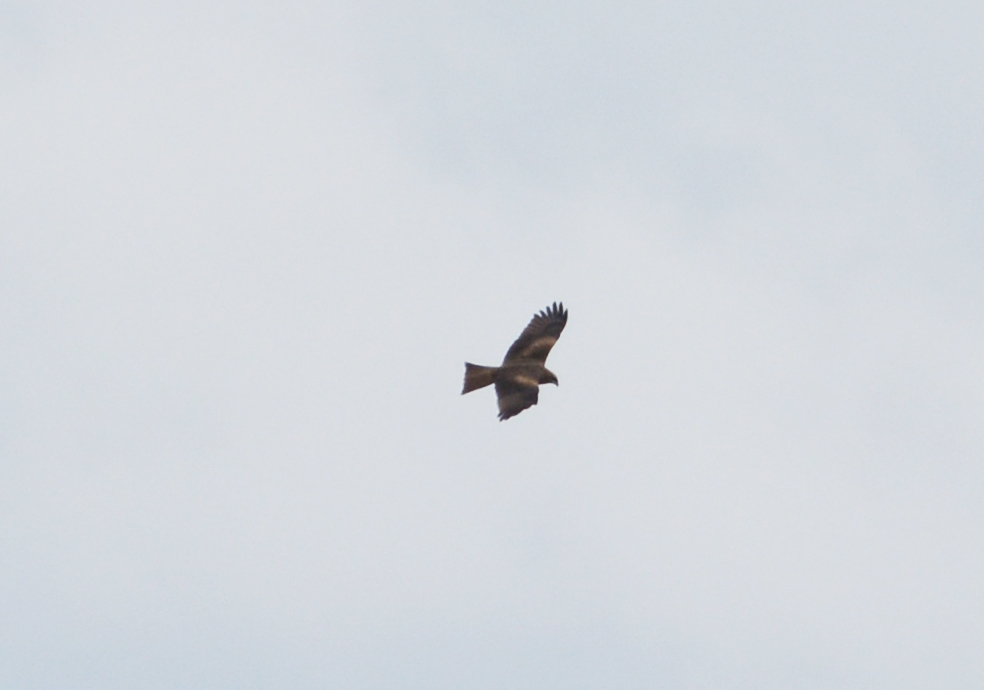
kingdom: Animalia
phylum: Chordata
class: Aves
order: Accipitriformes
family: Accipitridae
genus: Milvus
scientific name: Milvus migrans
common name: Black kite
